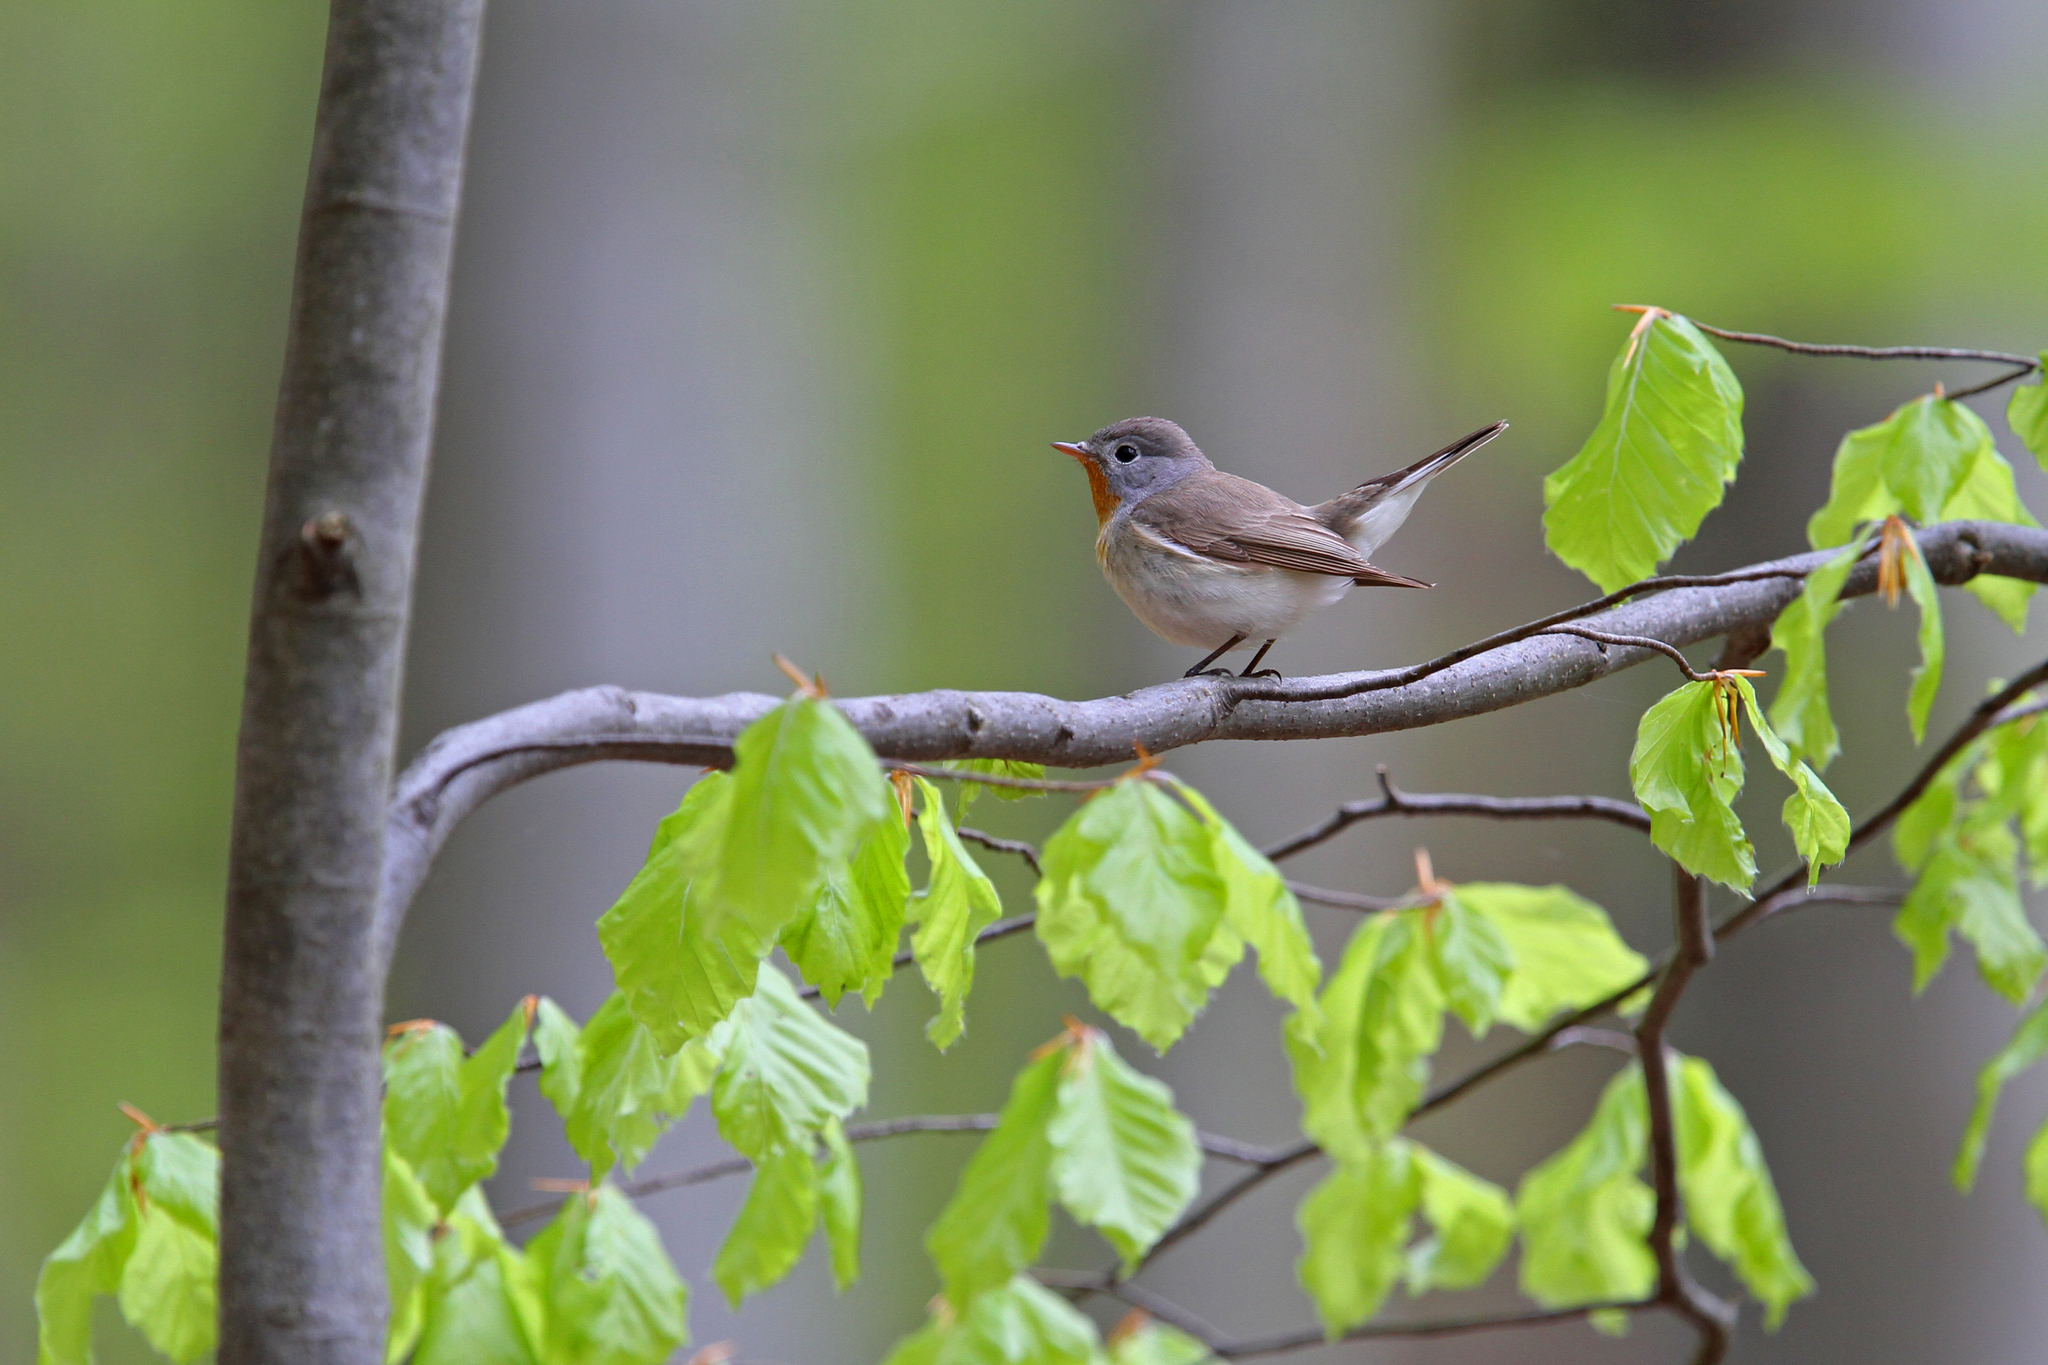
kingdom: Animalia
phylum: Chordata
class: Aves
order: Passeriformes
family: Muscicapidae
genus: Ficedula
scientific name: Ficedula parva
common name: Red-breasted flycatcher
